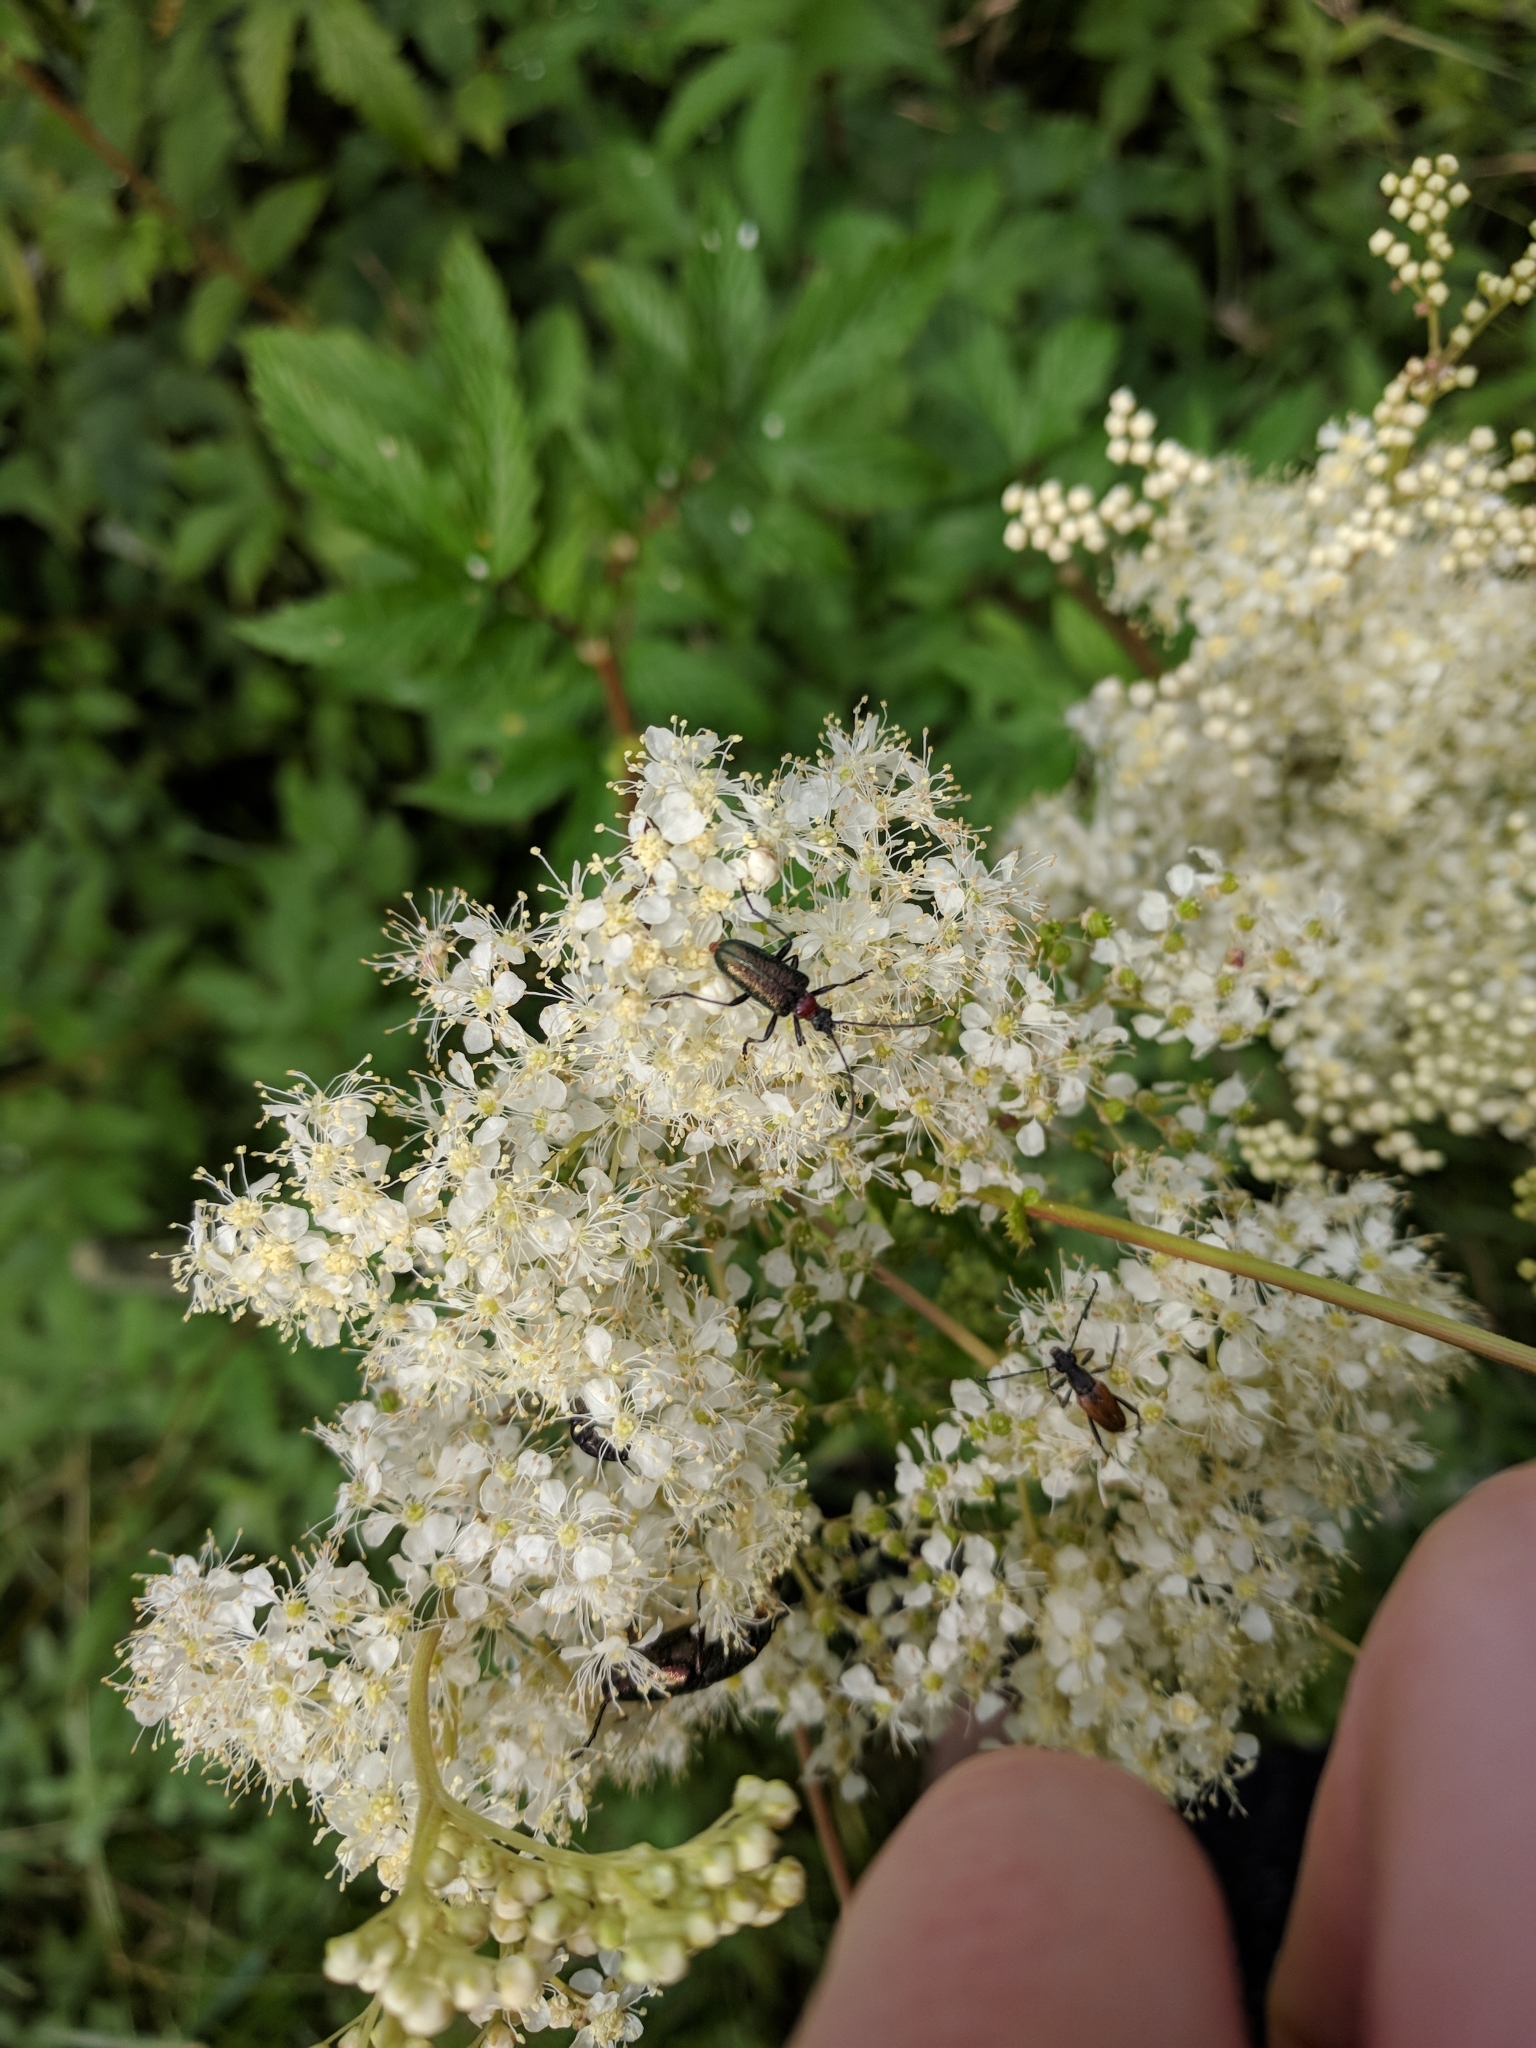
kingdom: Animalia
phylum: Arthropoda
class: Insecta
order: Coleoptera
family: Cerambycidae
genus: Gaurotes
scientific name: Gaurotes virginea
